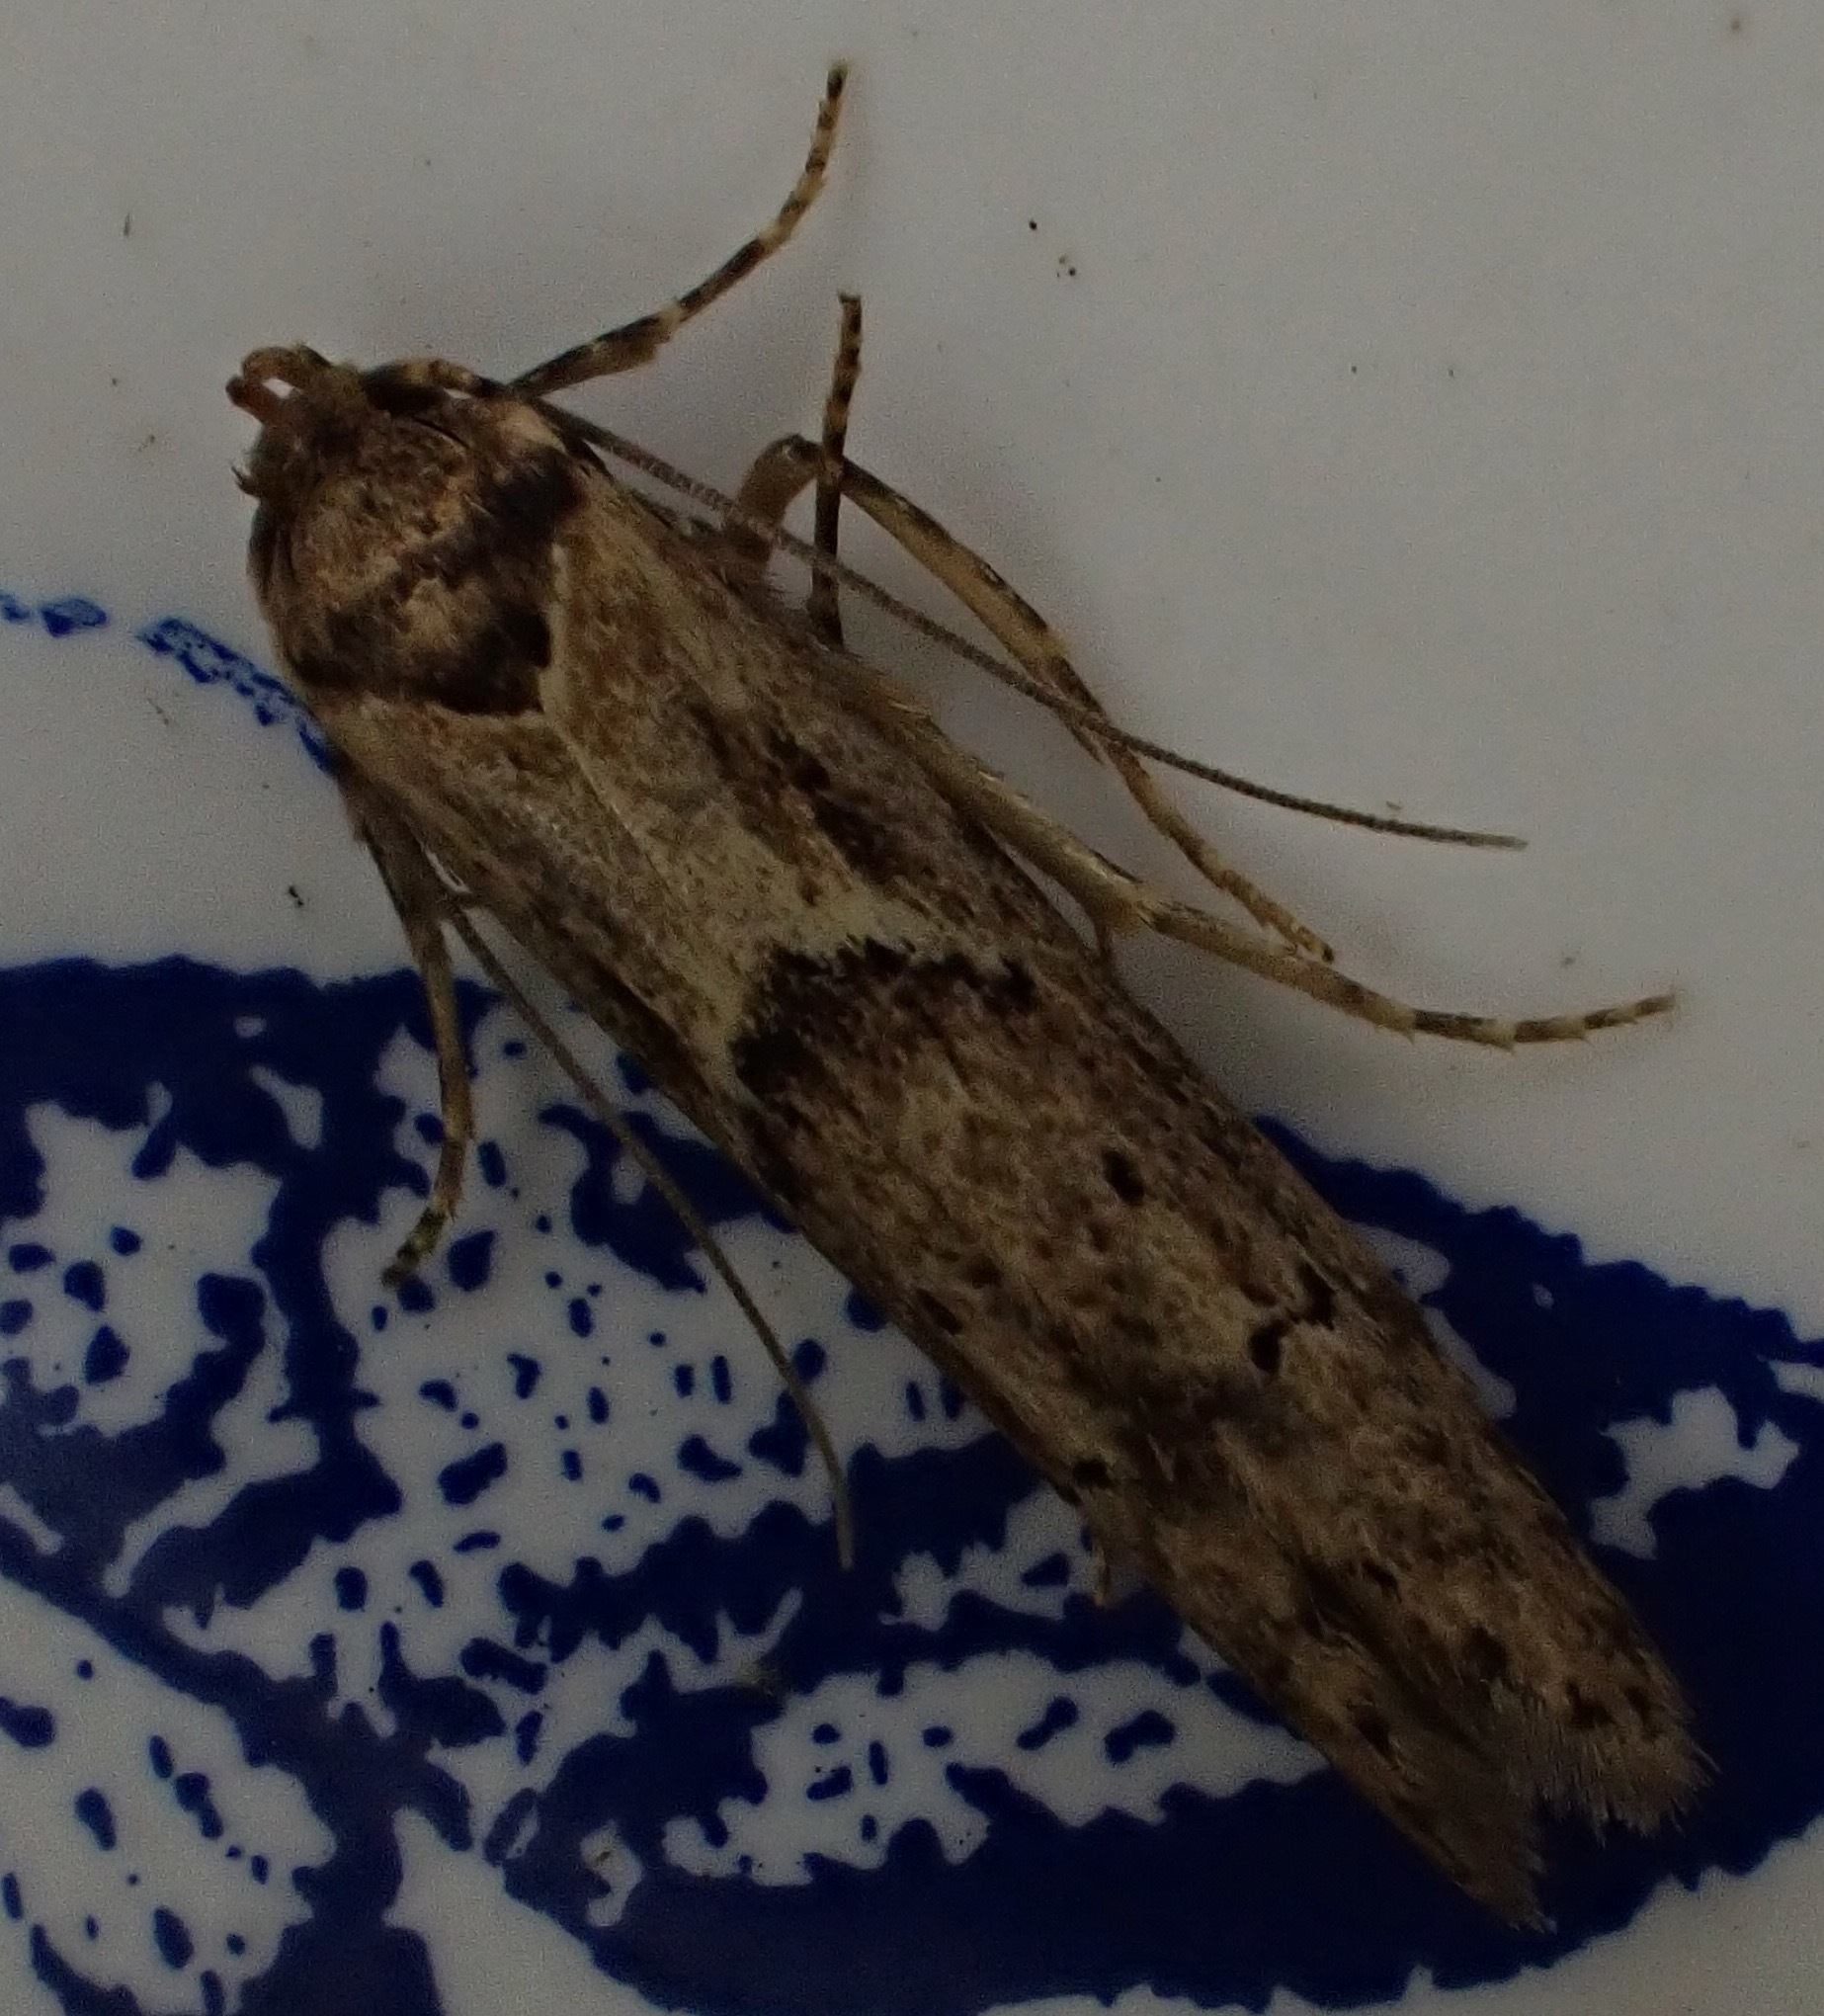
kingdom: Animalia
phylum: Arthropoda
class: Insecta
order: Lepidoptera
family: Blastobasidae
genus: Blastobasis
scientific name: Blastobasis adustella
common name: Dingy dowd
